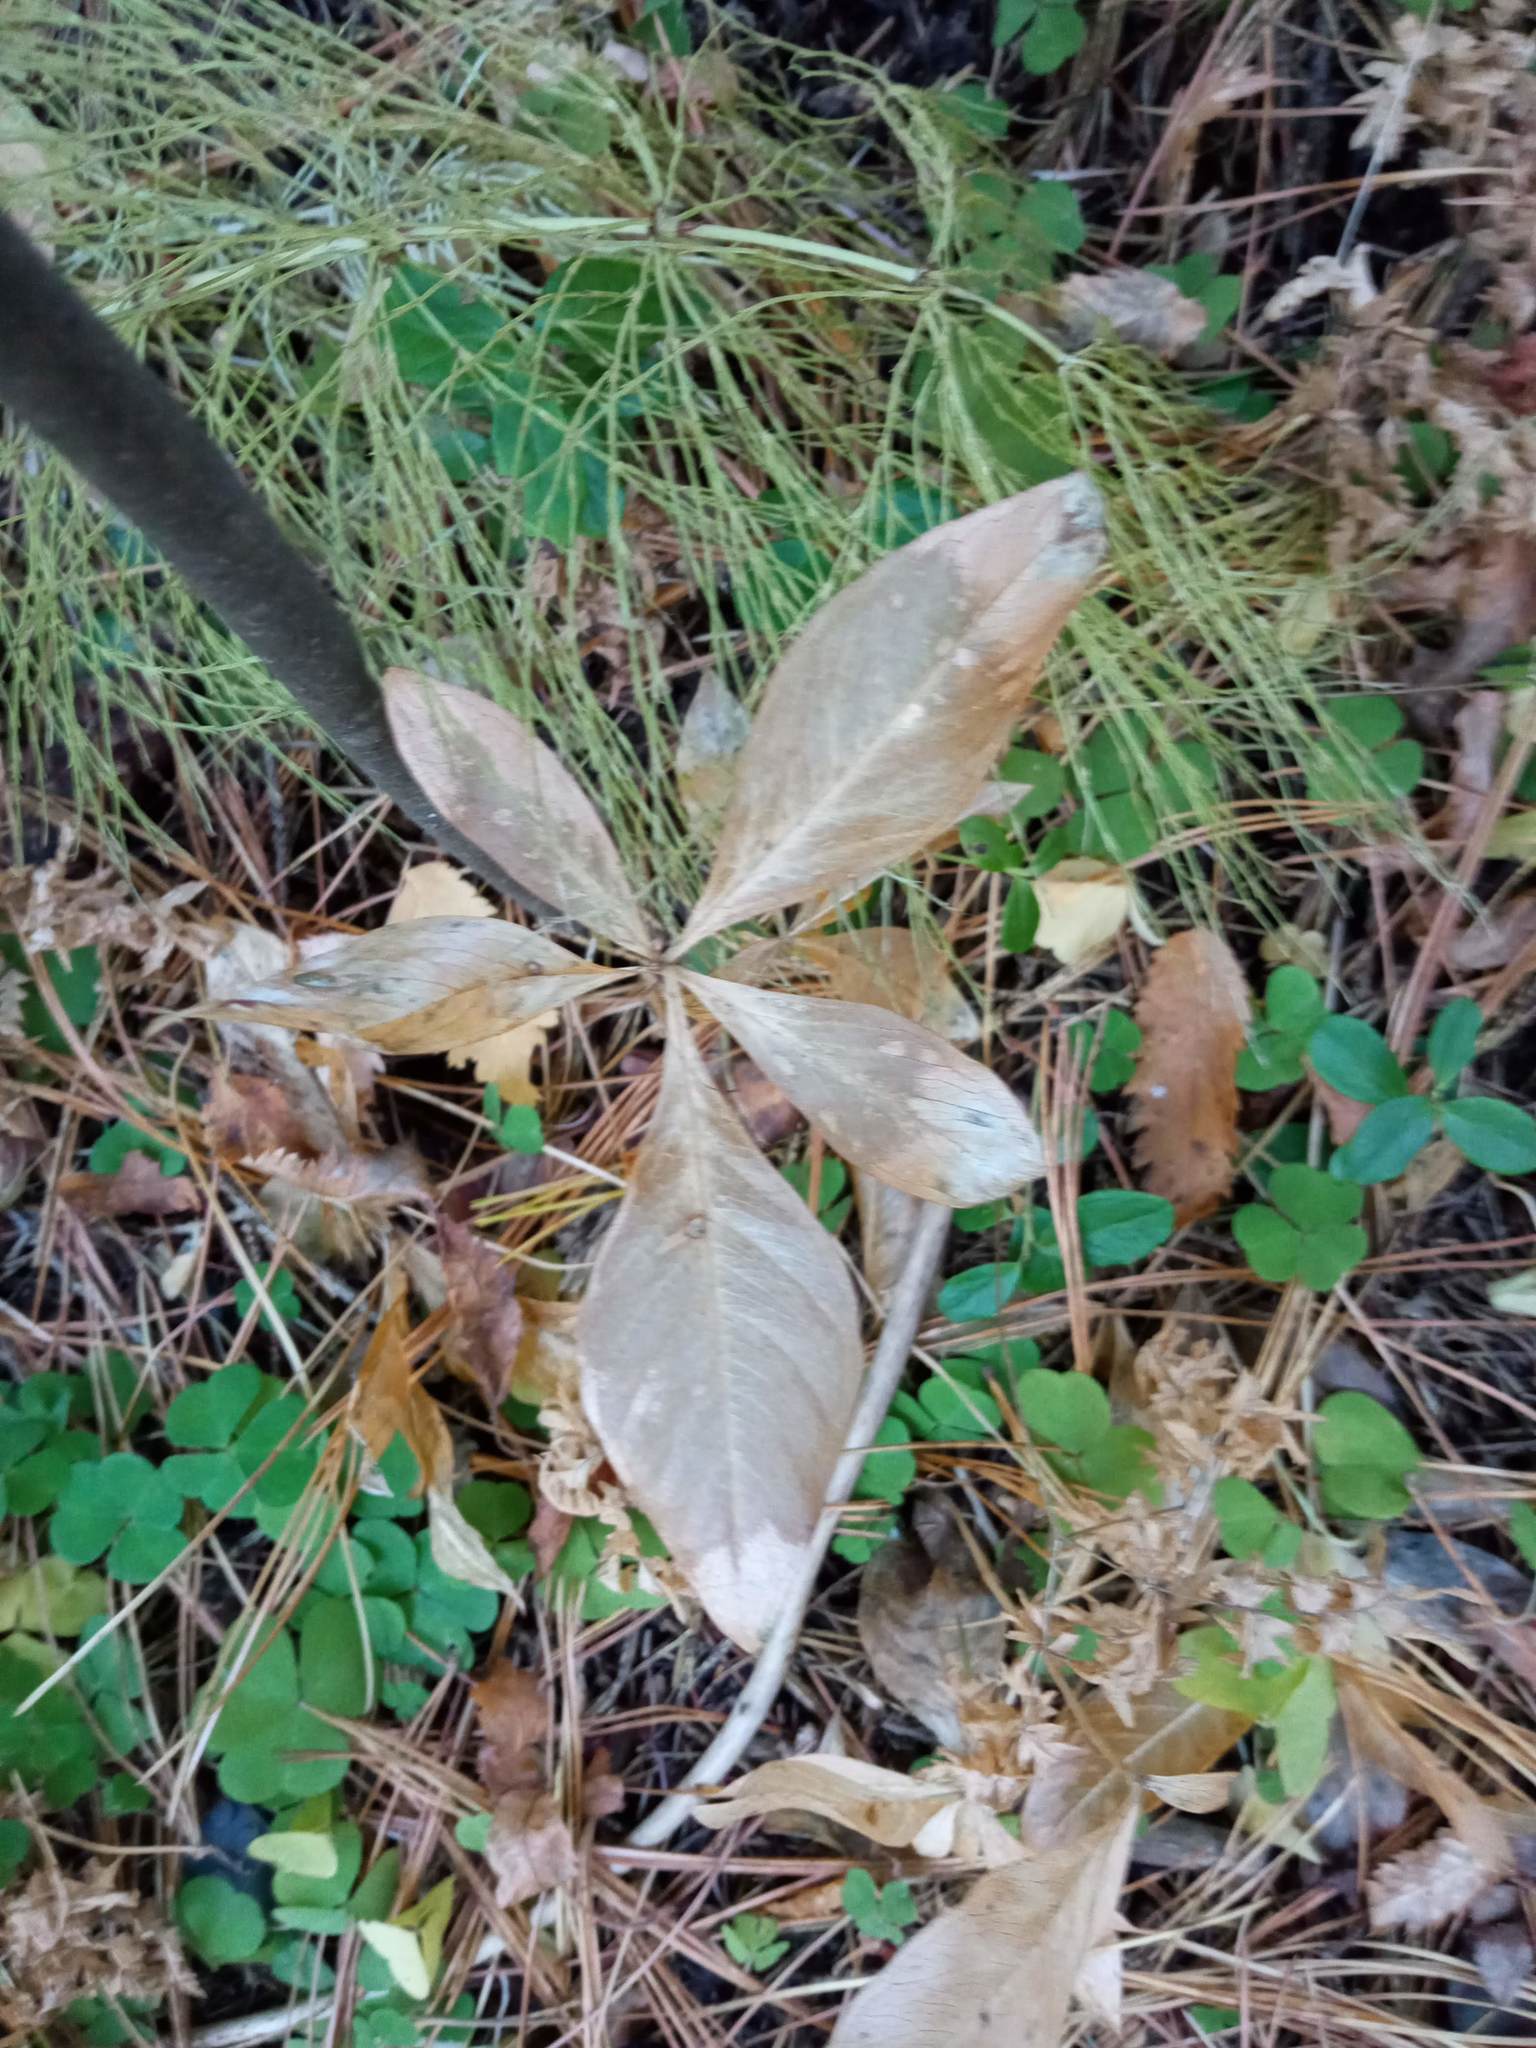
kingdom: Plantae
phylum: Tracheophyta
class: Magnoliopsida
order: Ericales
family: Primulaceae
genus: Lysimachia
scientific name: Lysimachia europaea
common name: Arctic starflower
